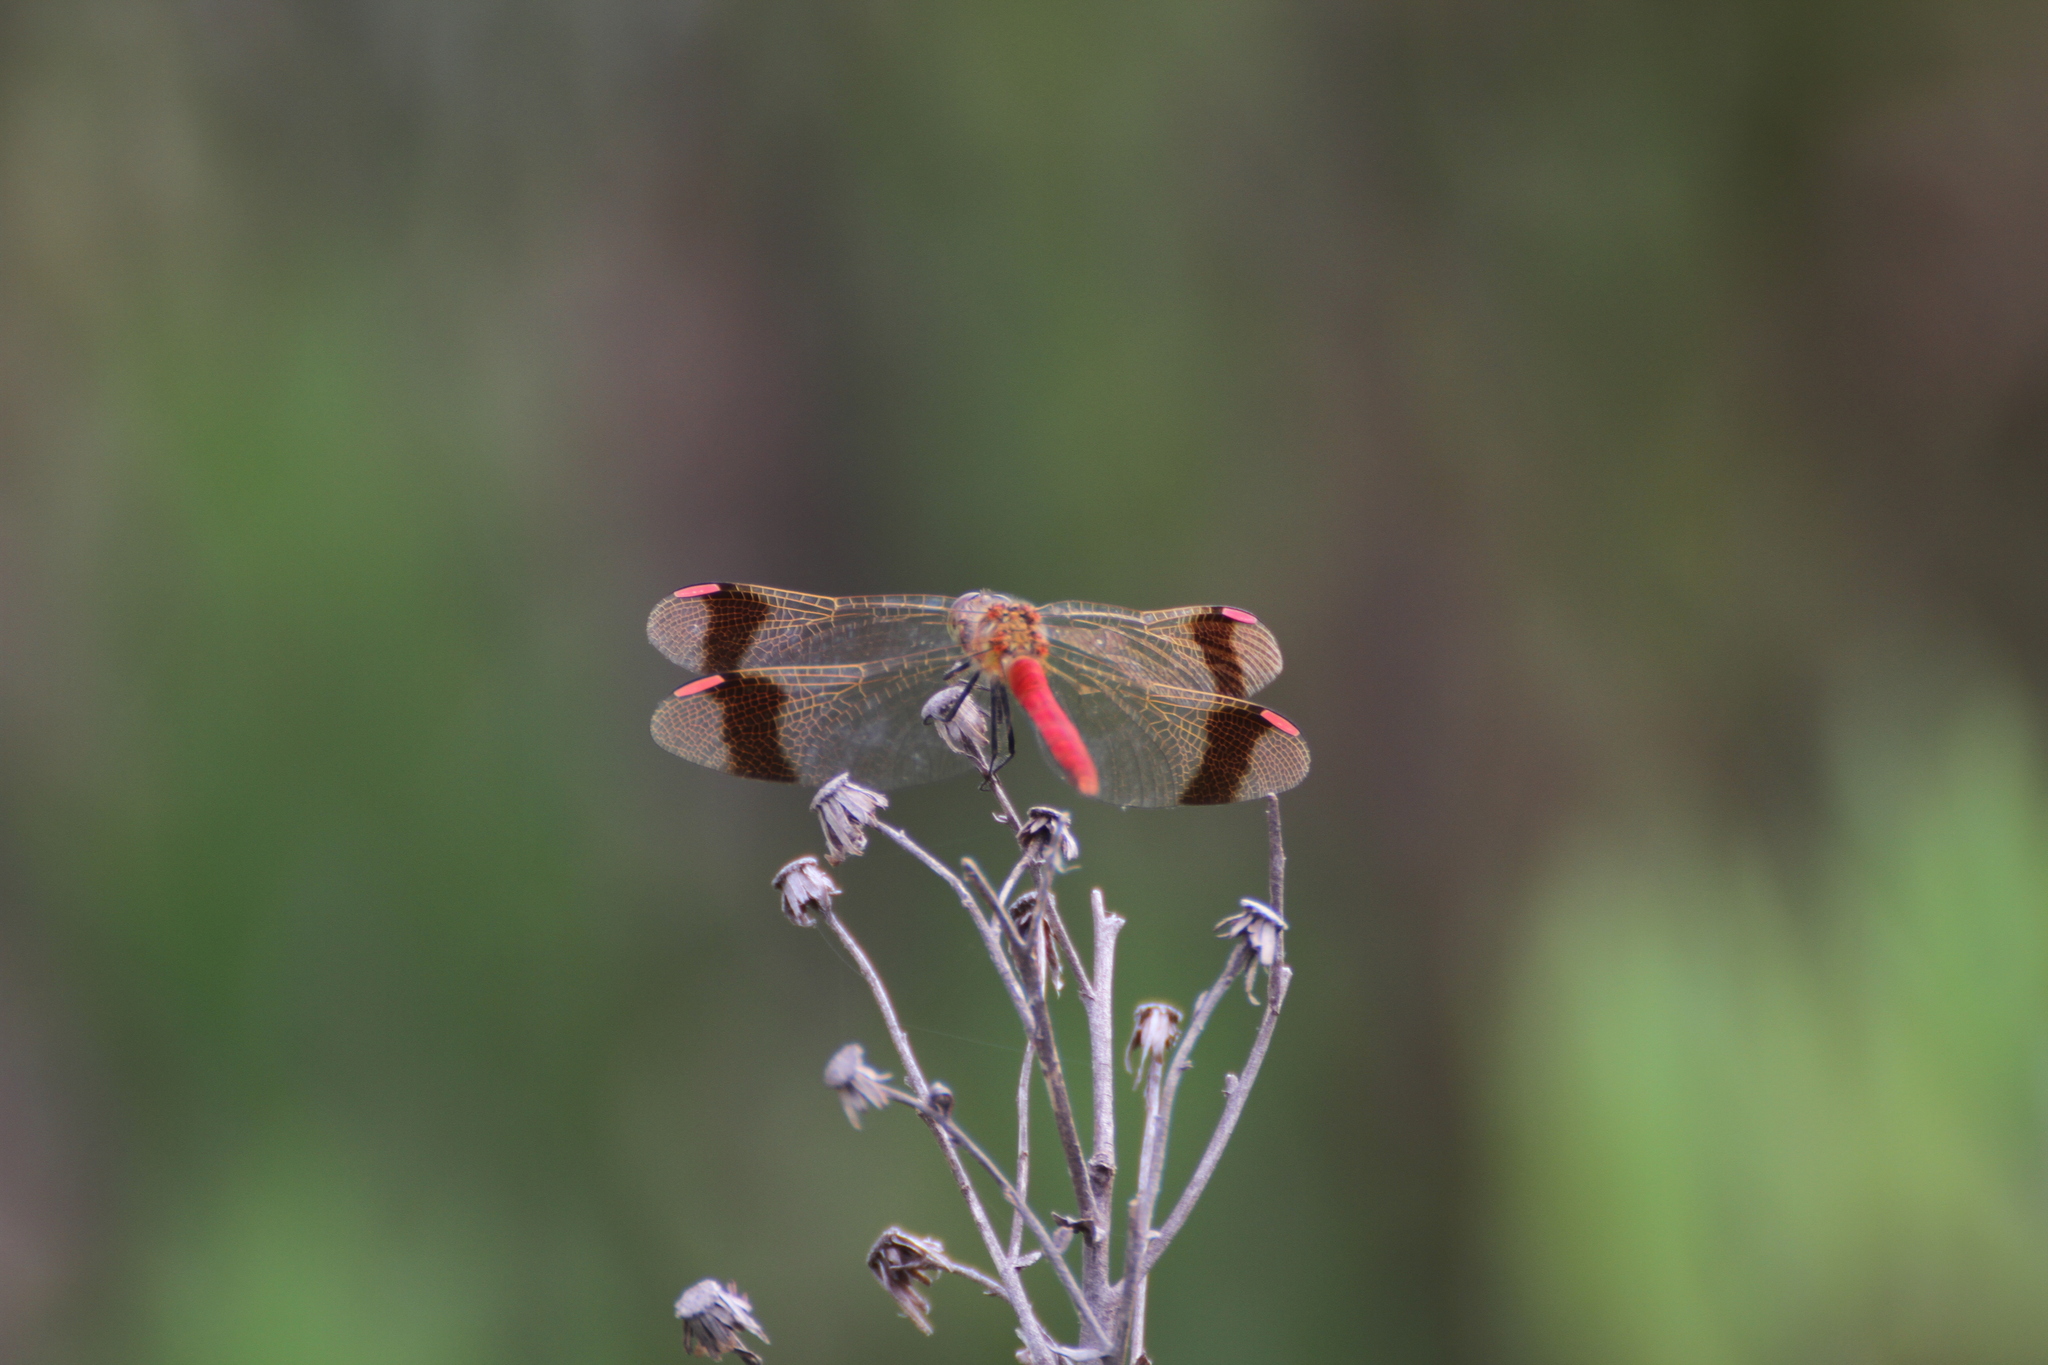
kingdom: Animalia
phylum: Arthropoda
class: Insecta
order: Odonata
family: Libellulidae
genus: Sympetrum
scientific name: Sympetrum pedemontanum
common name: Banded darter
